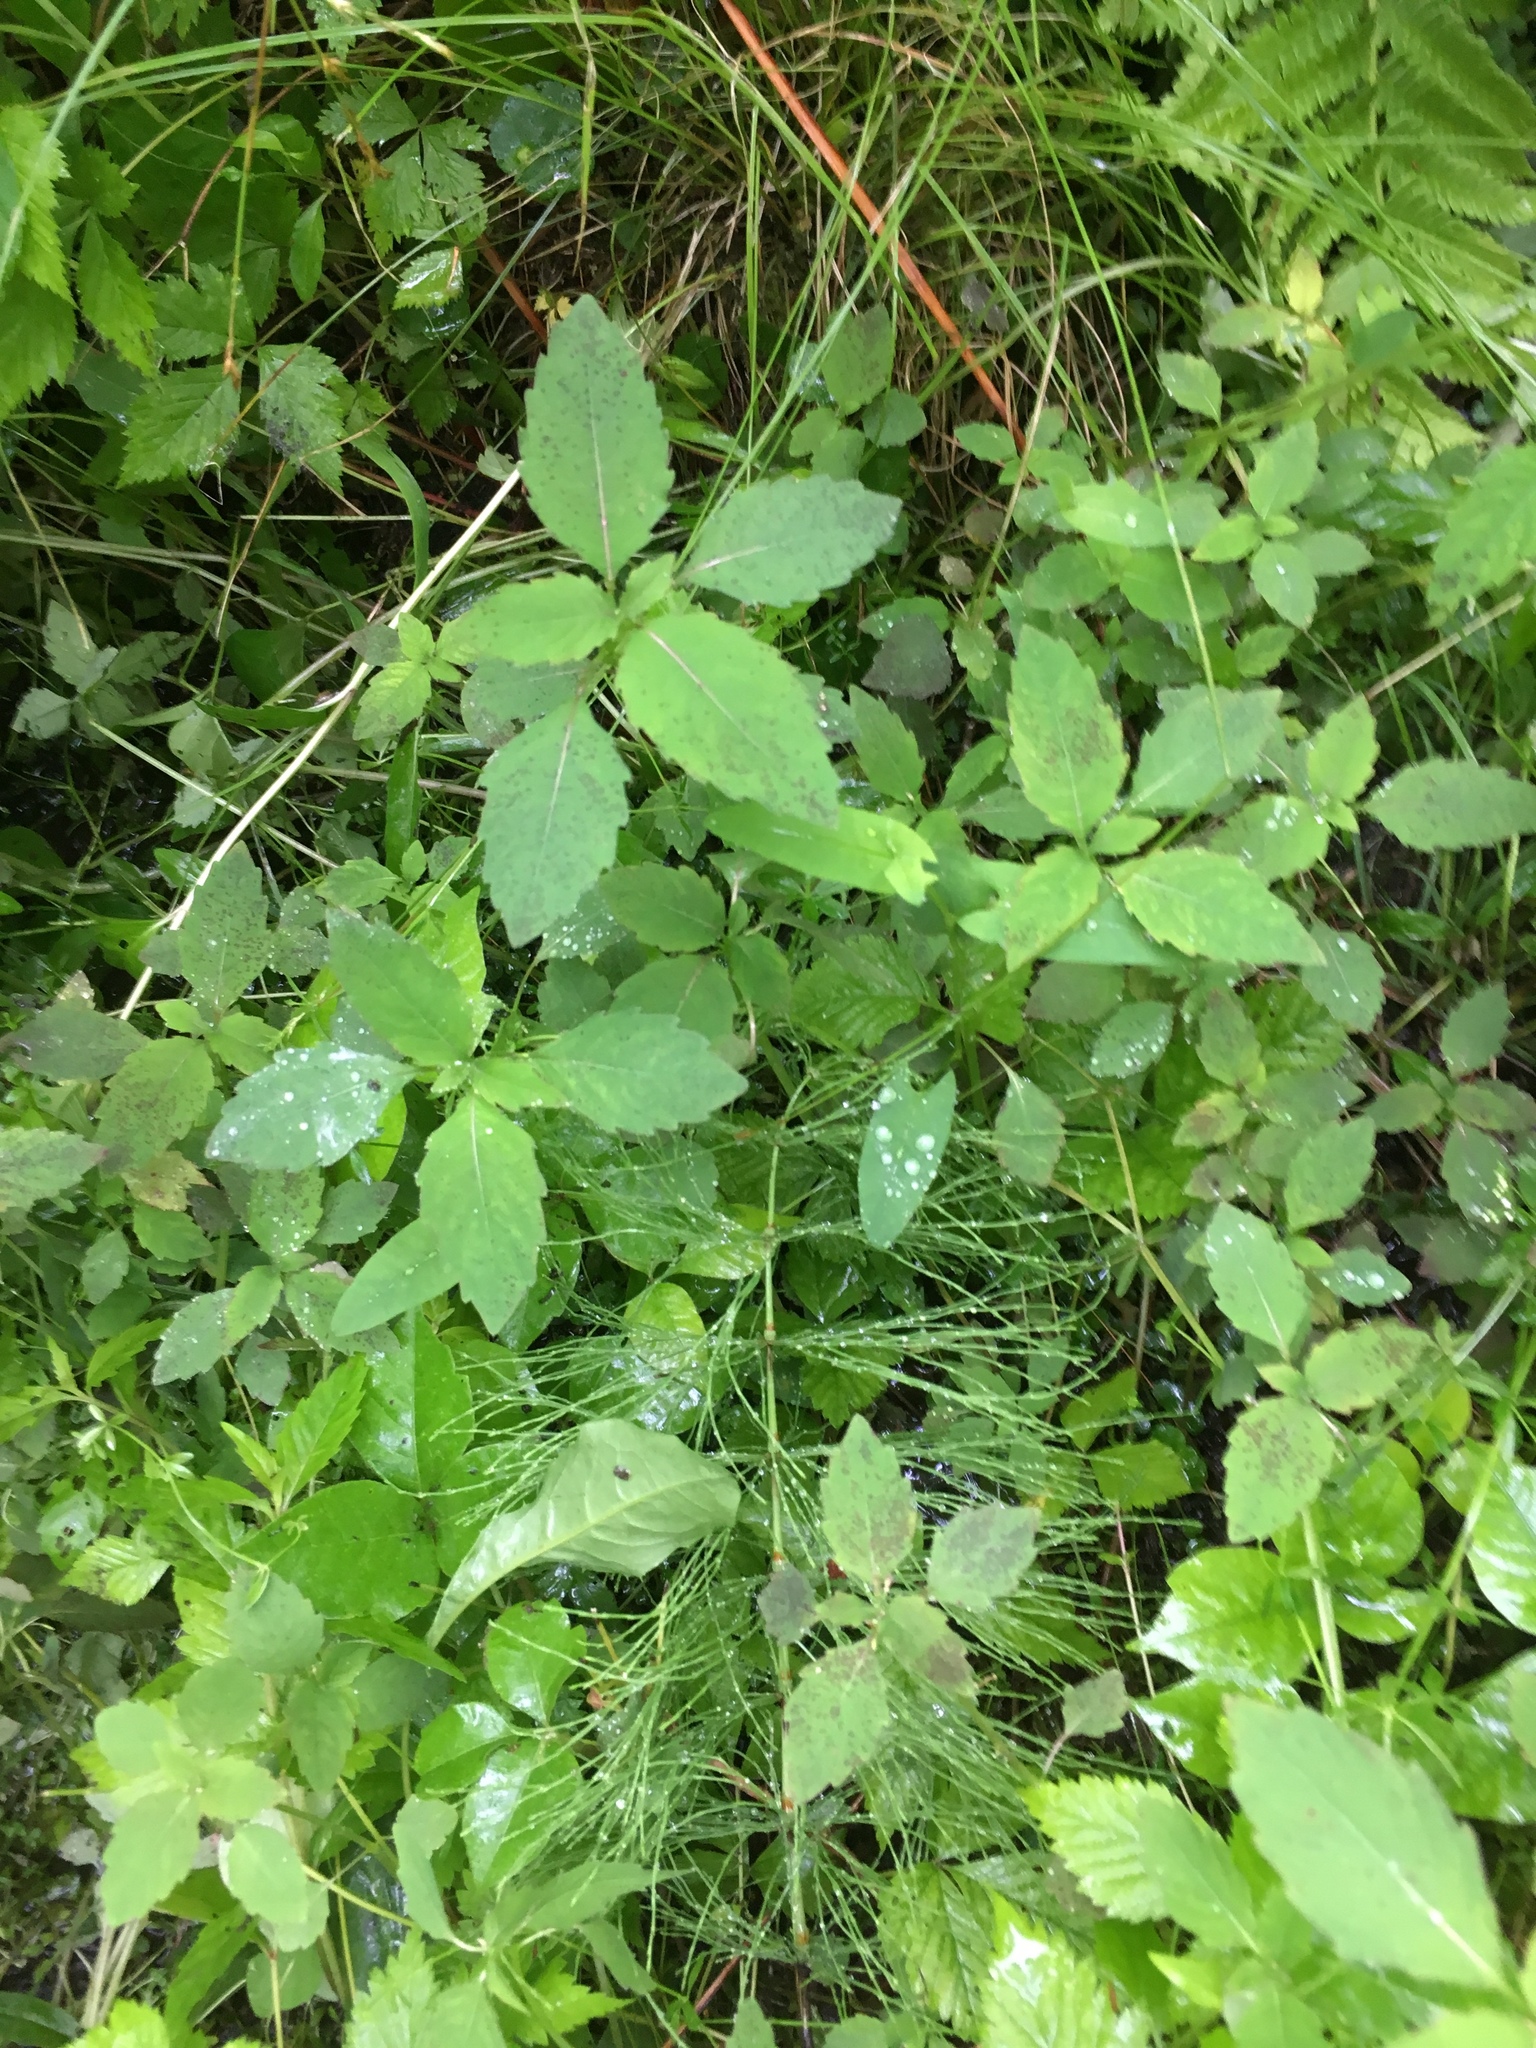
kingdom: Plantae
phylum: Tracheophyta
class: Magnoliopsida
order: Ericales
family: Balsaminaceae
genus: Impatiens
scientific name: Impatiens capensis
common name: Orange balsam
